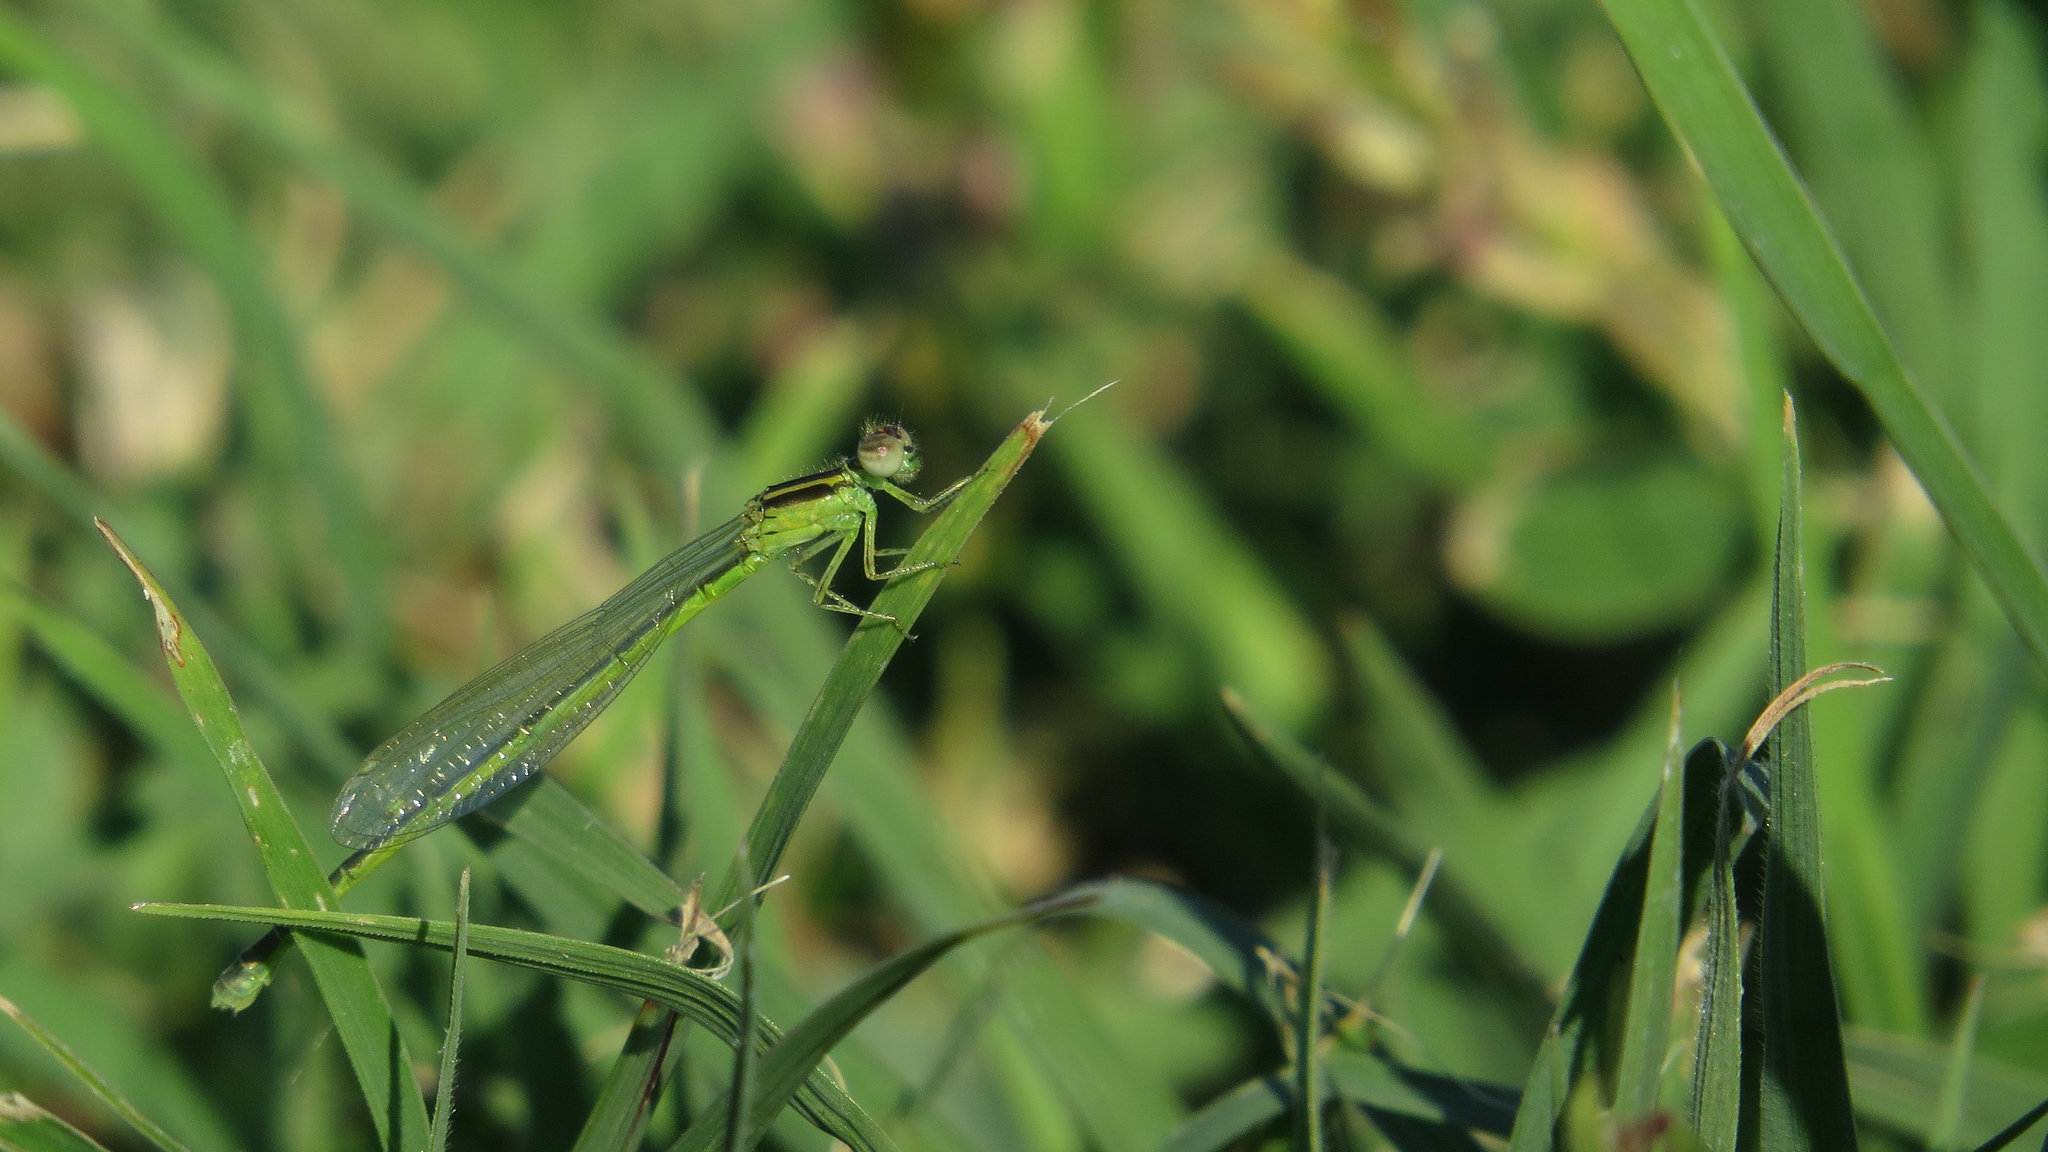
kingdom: Animalia
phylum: Arthropoda
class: Insecta
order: Odonata
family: Coenagrionidae
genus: Ischnura
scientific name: Ischnura aurora
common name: Gossamer damselfly
